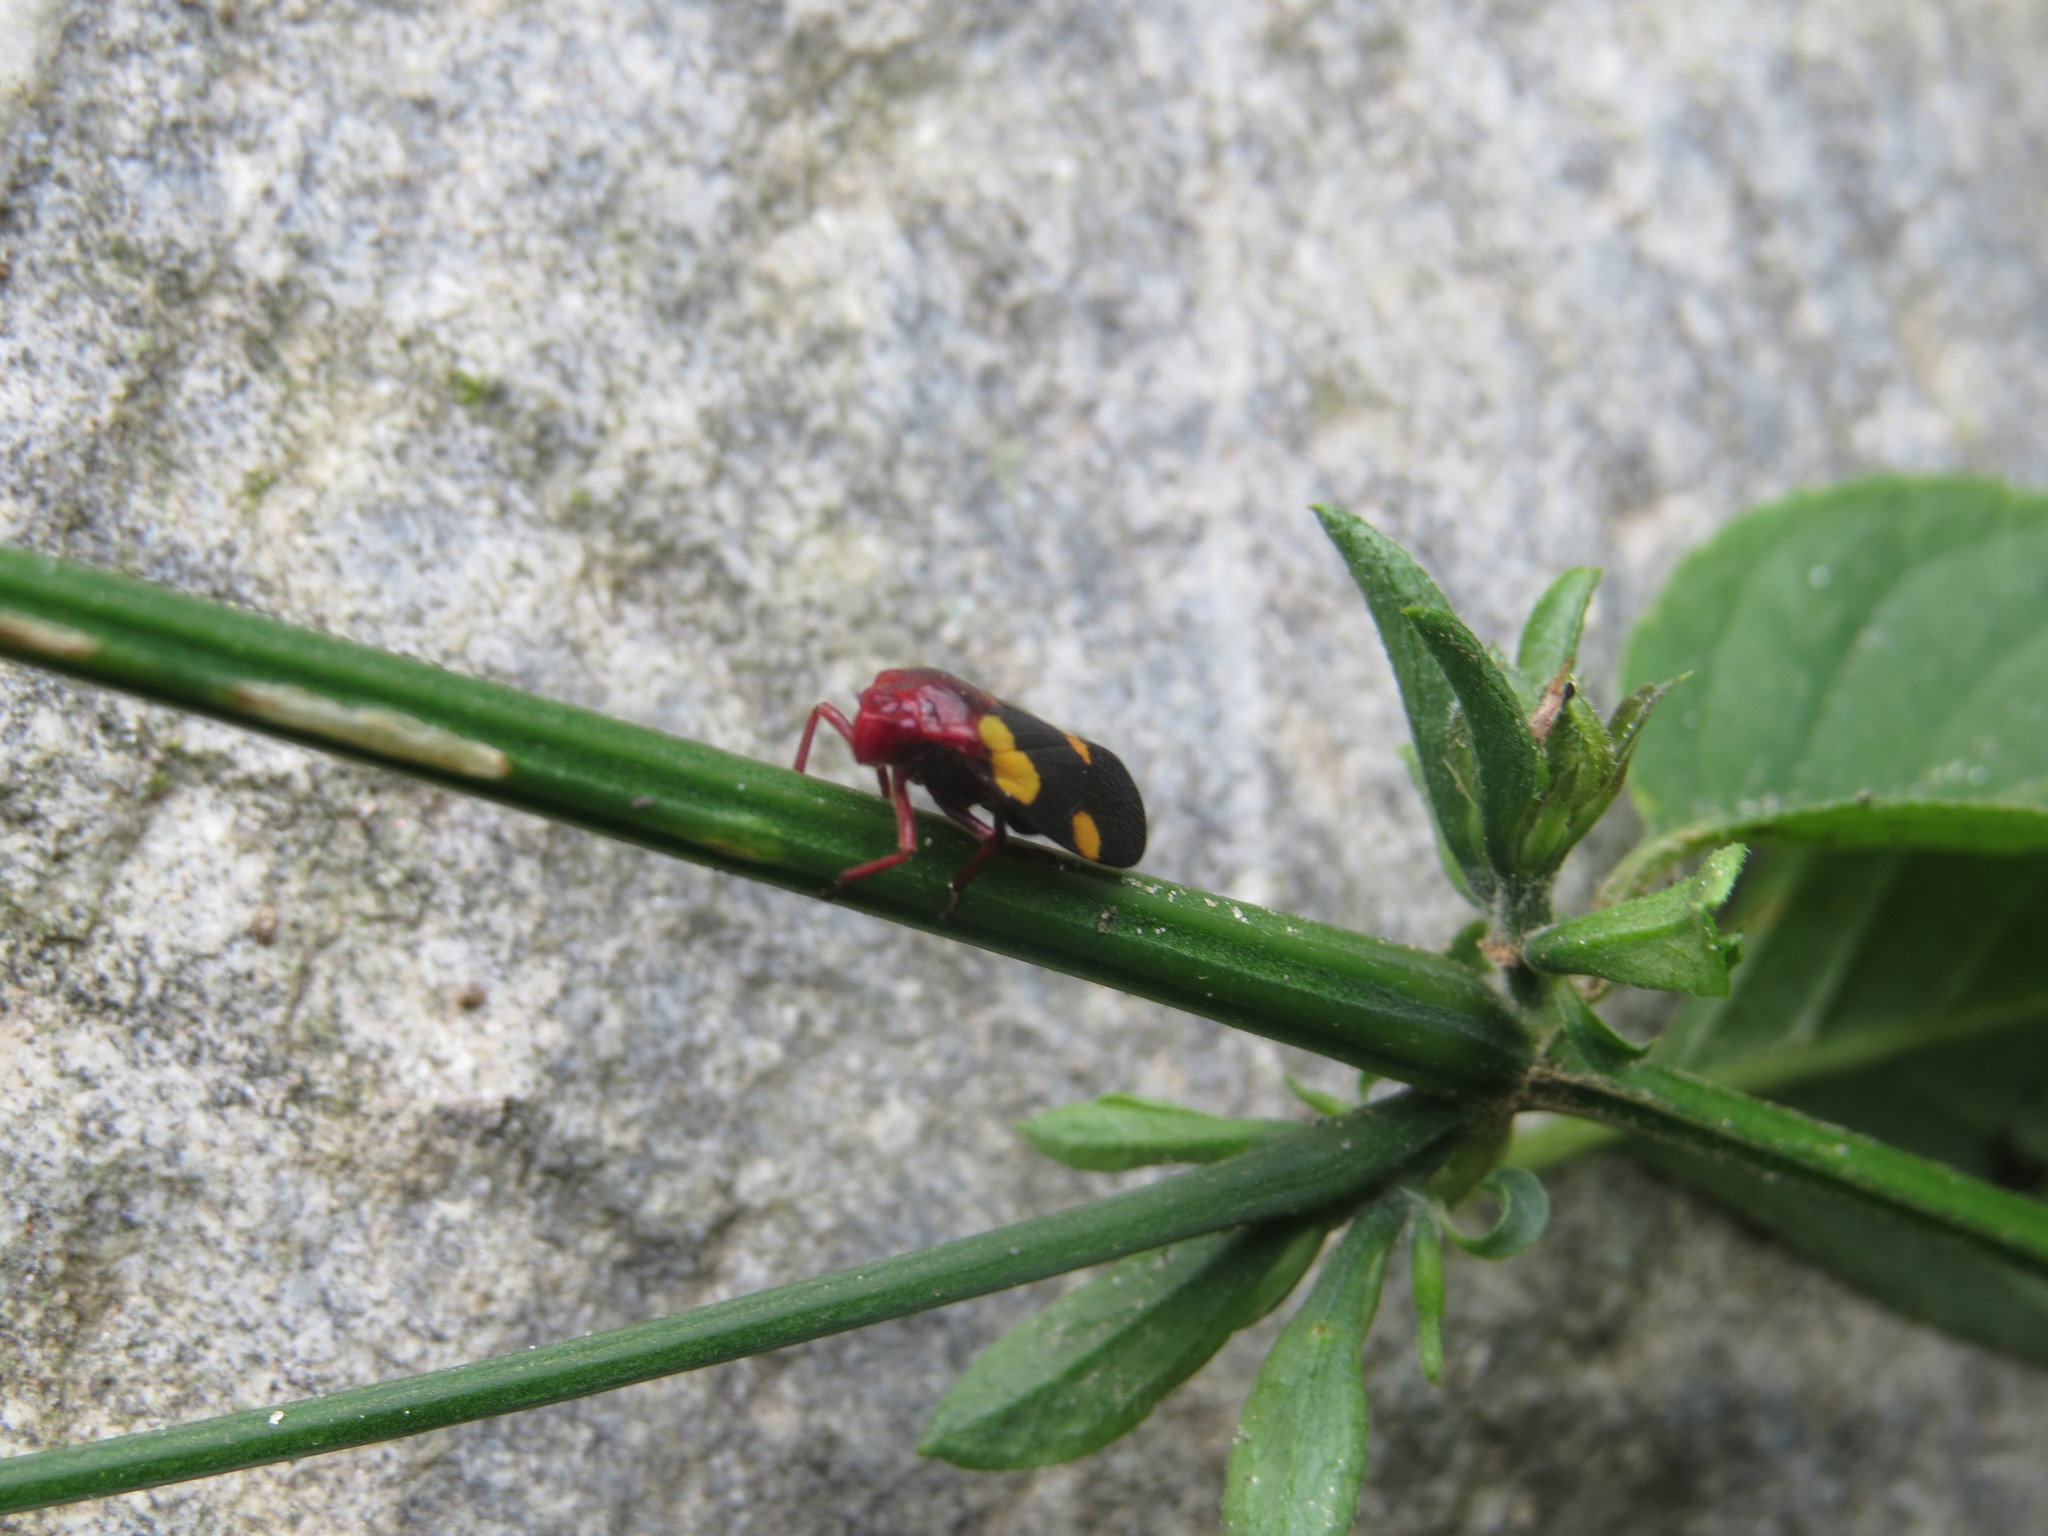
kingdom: Animalia
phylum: Arthropoda
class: Insecta
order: Hemiptera
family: Cercopidae
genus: Sphenorhina
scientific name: Sphenorhina limbata
